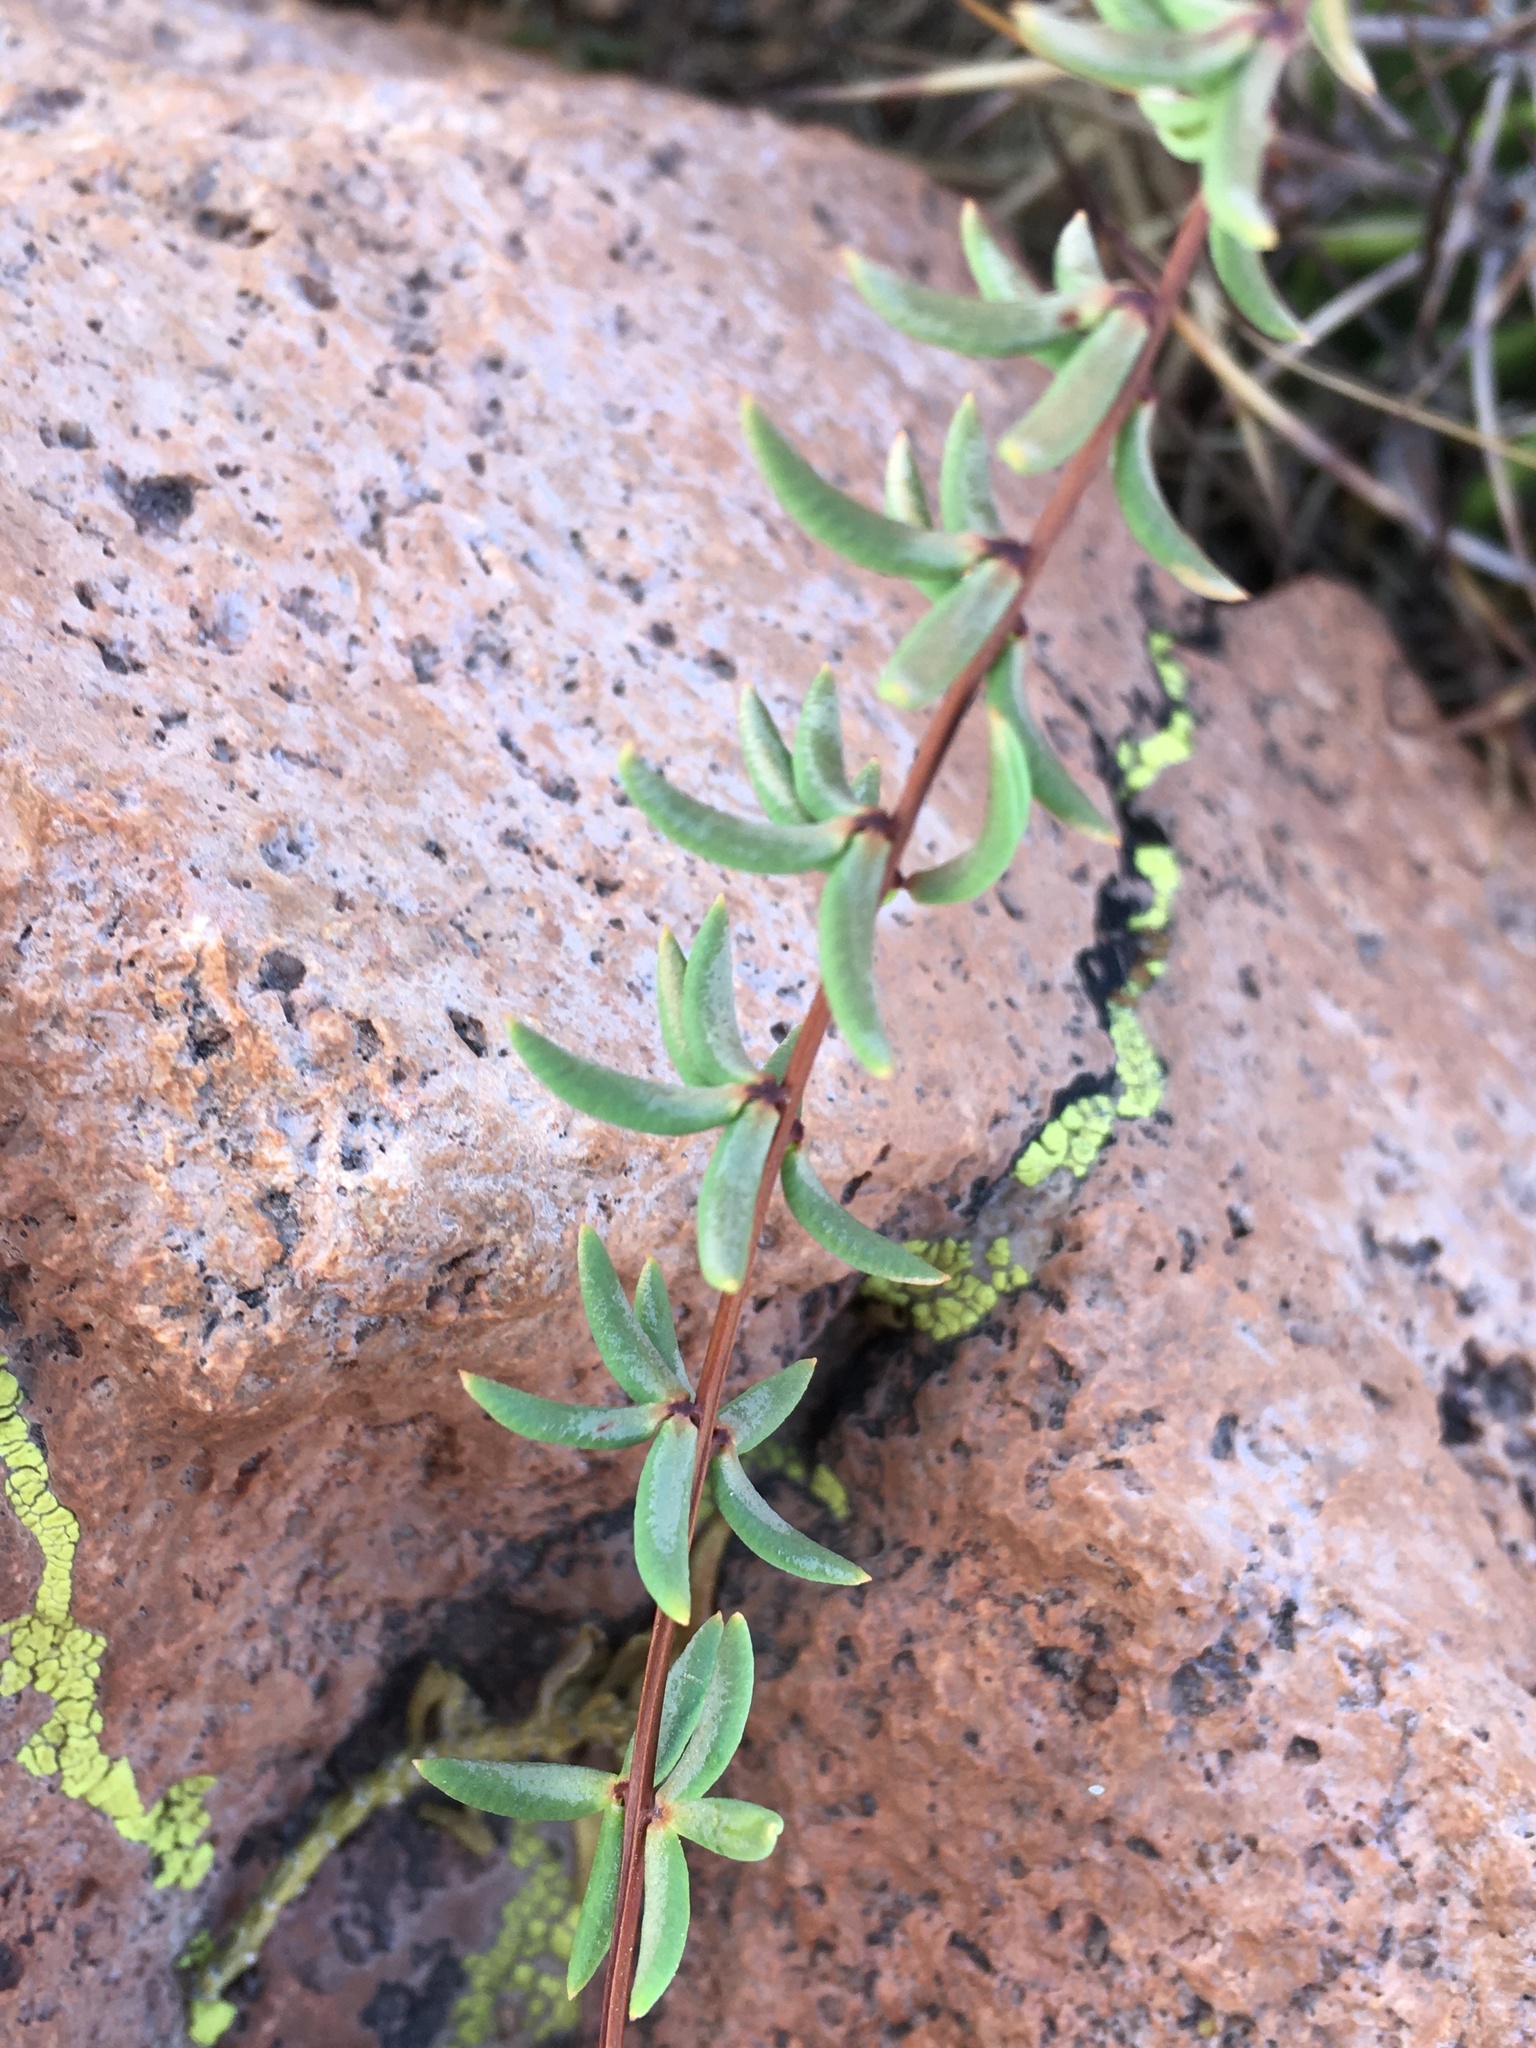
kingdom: Plantae
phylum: Tracheophyta
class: Polypodiopsida
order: Polypodiales
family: Pteridaceae
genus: Pellaea
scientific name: Pellaea ternifolia
